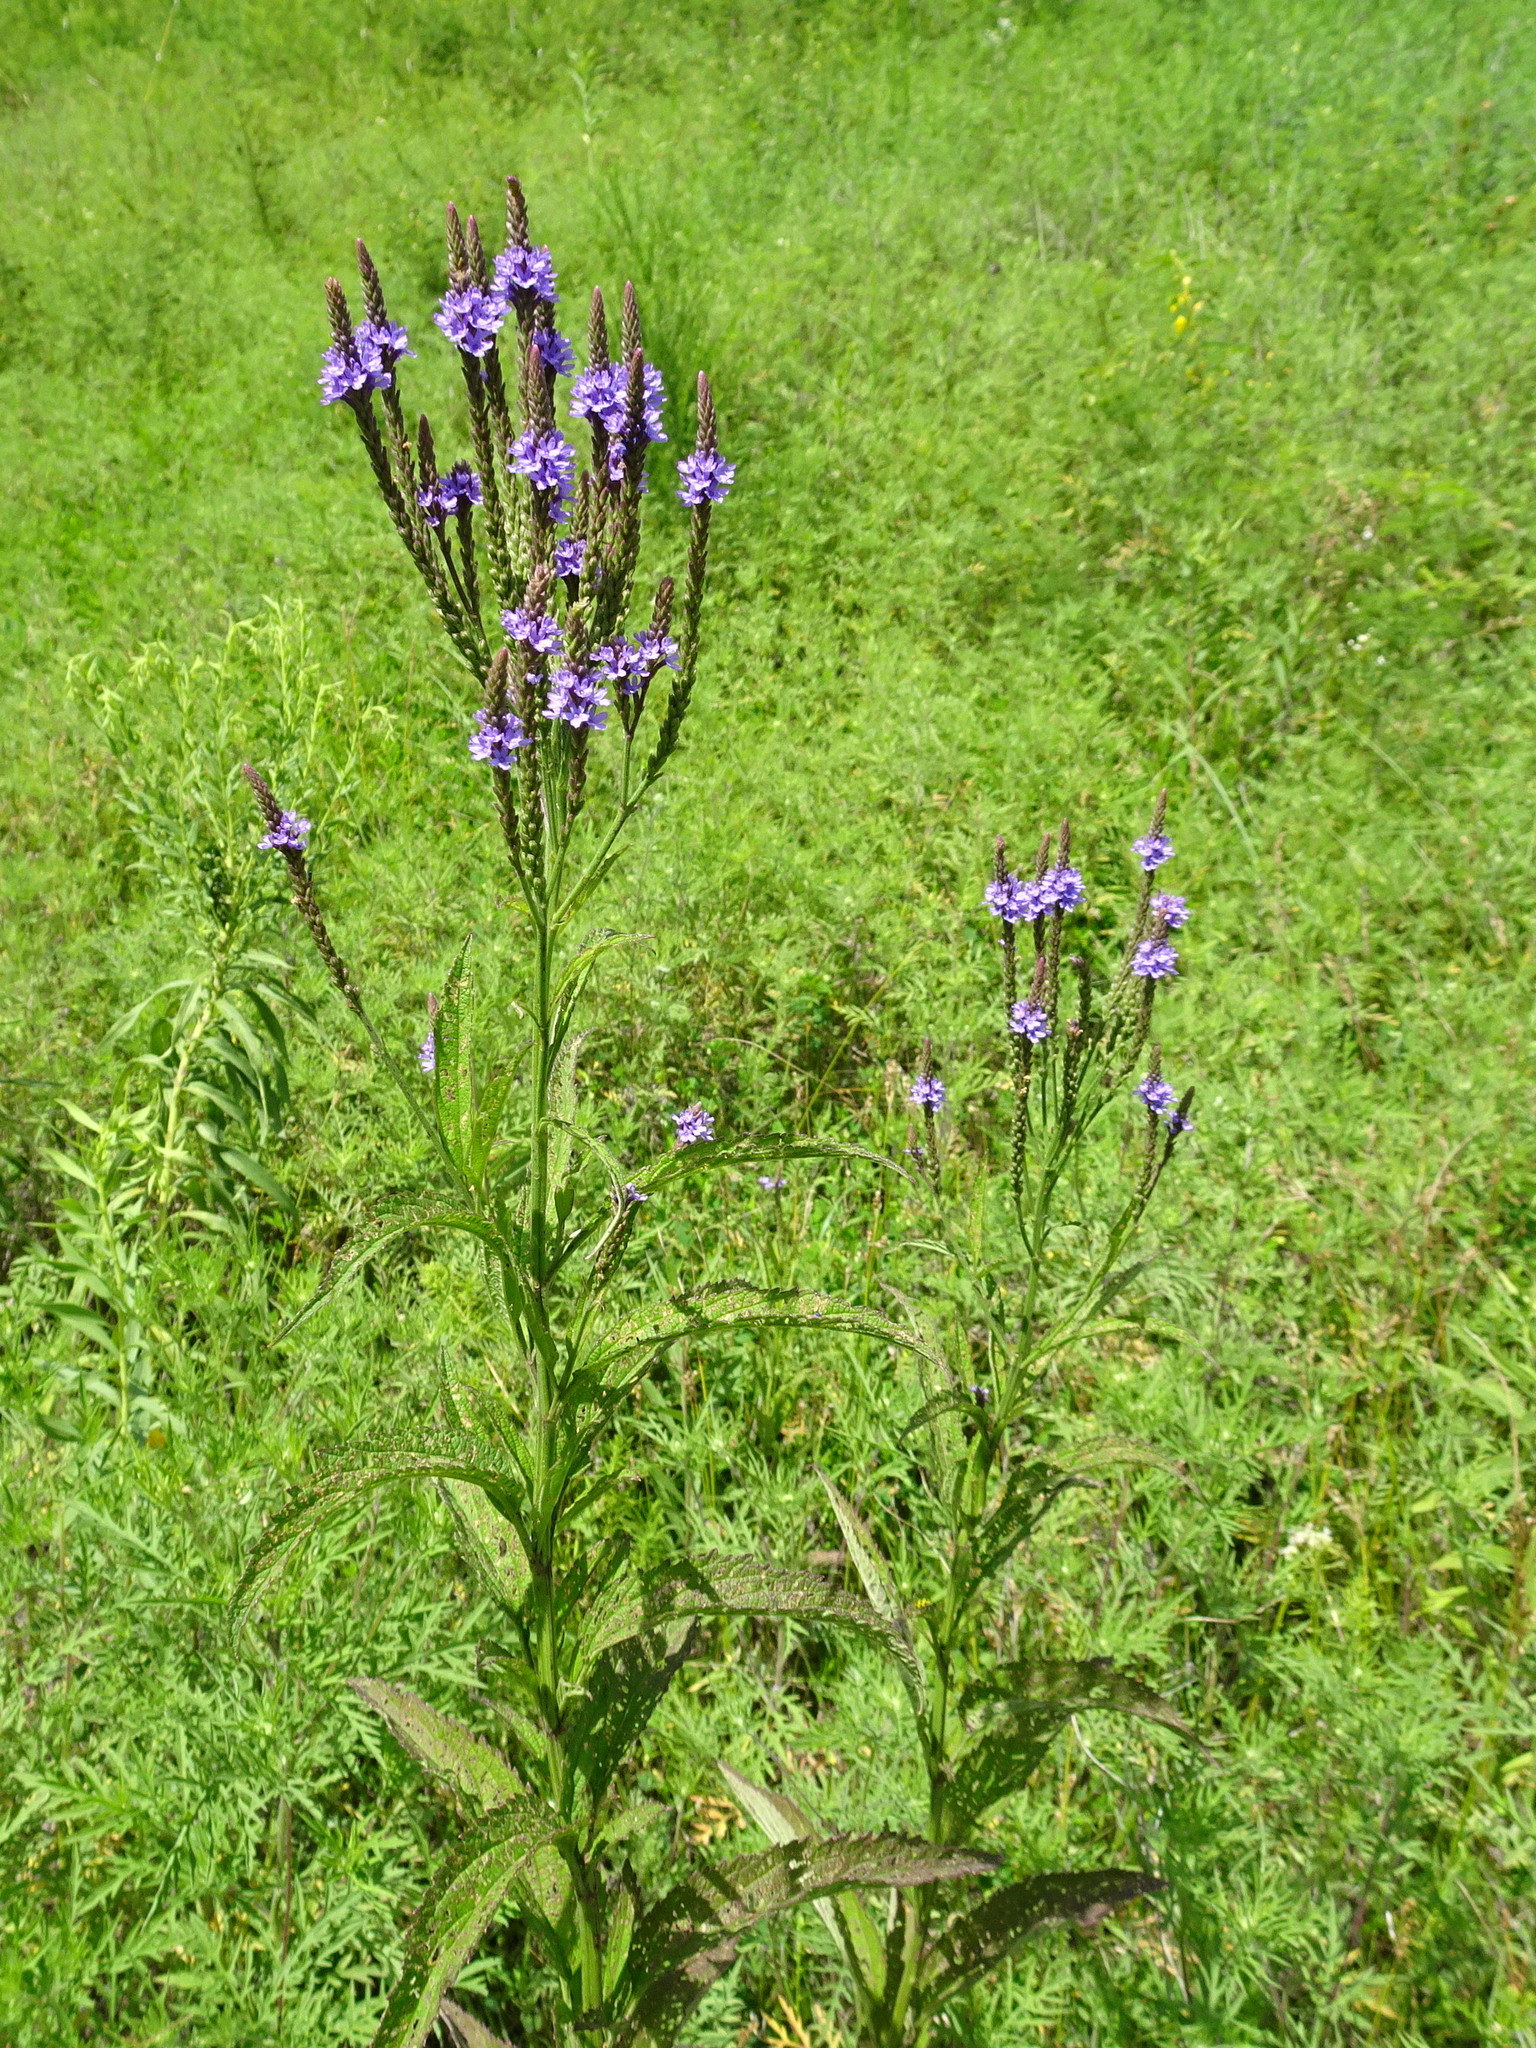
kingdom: Plantae
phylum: Tracheophyta
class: Magnoliopsida
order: Lamiales
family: Verbenaceae
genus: Verbena
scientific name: Verbena hastata
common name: American blue vervain
